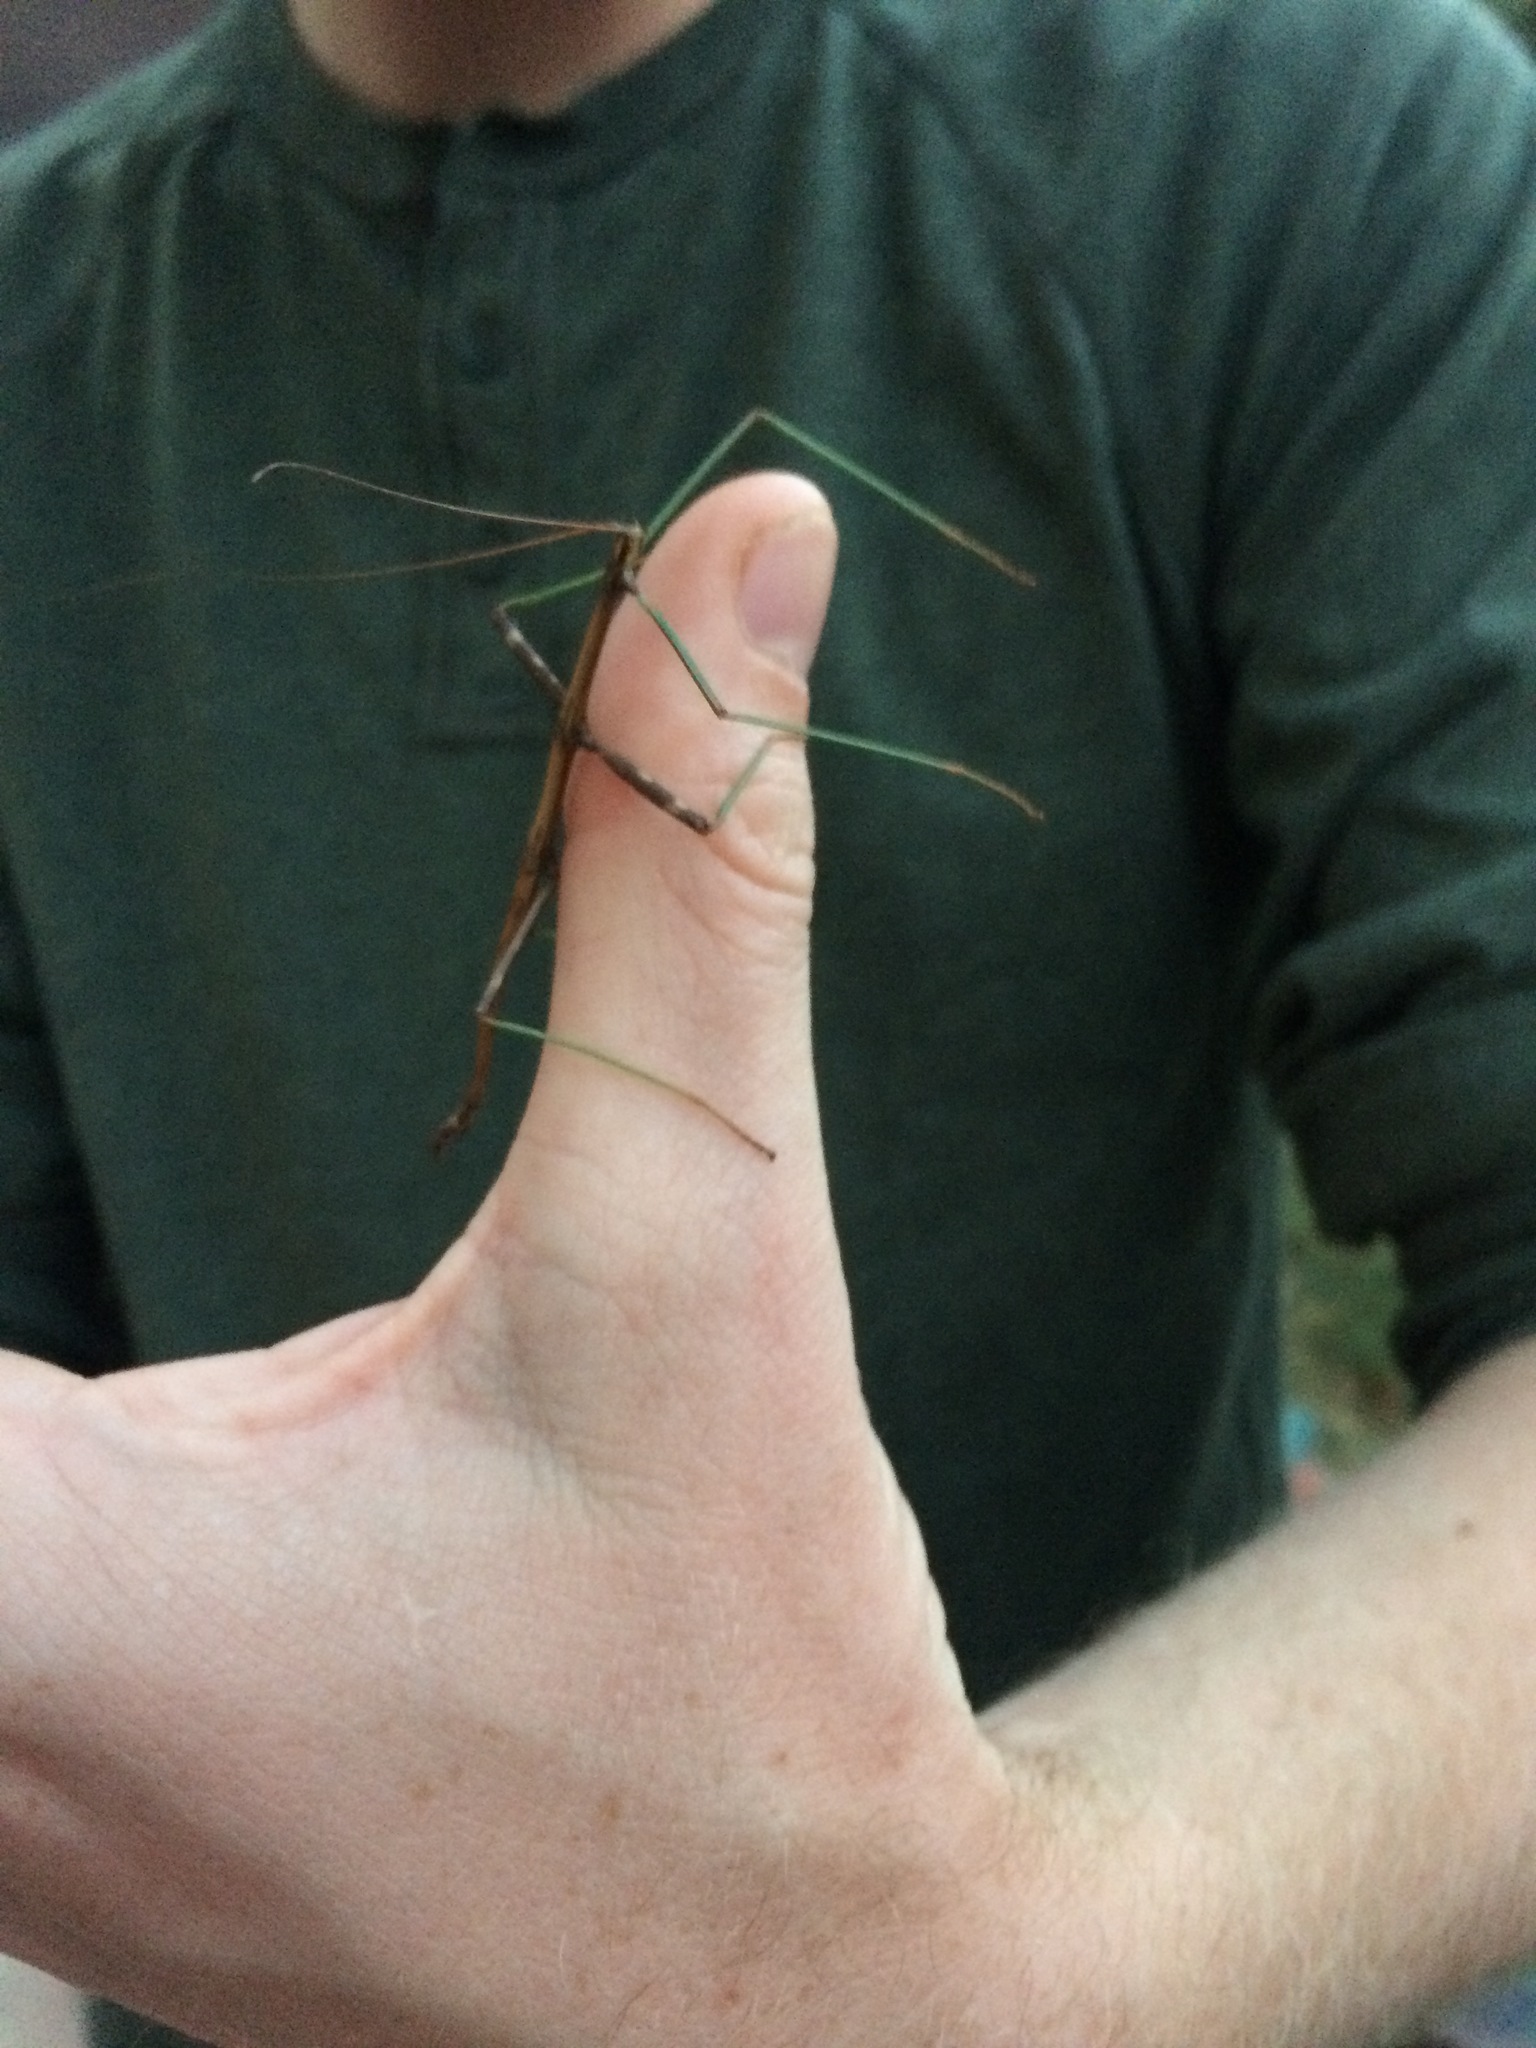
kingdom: Animalia
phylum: Arthropoda
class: Insecta
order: Phasmida
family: Diapheromeridae
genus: Diapheromera
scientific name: Diapheromera femorata
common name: Common american walkingstick
